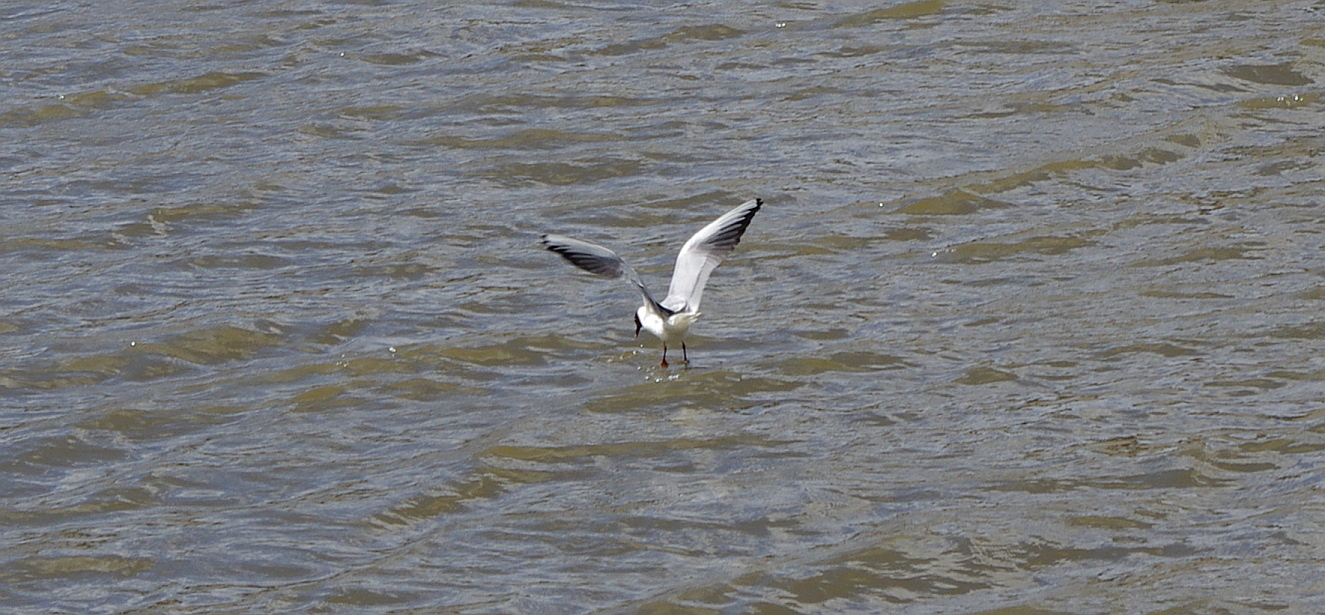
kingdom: Animalia
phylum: Chordata
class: Aves
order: Charadriiformes
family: Laridae
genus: Chroicocephalus
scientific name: Chroicocephalus ridibundus
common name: Black-headed gull
